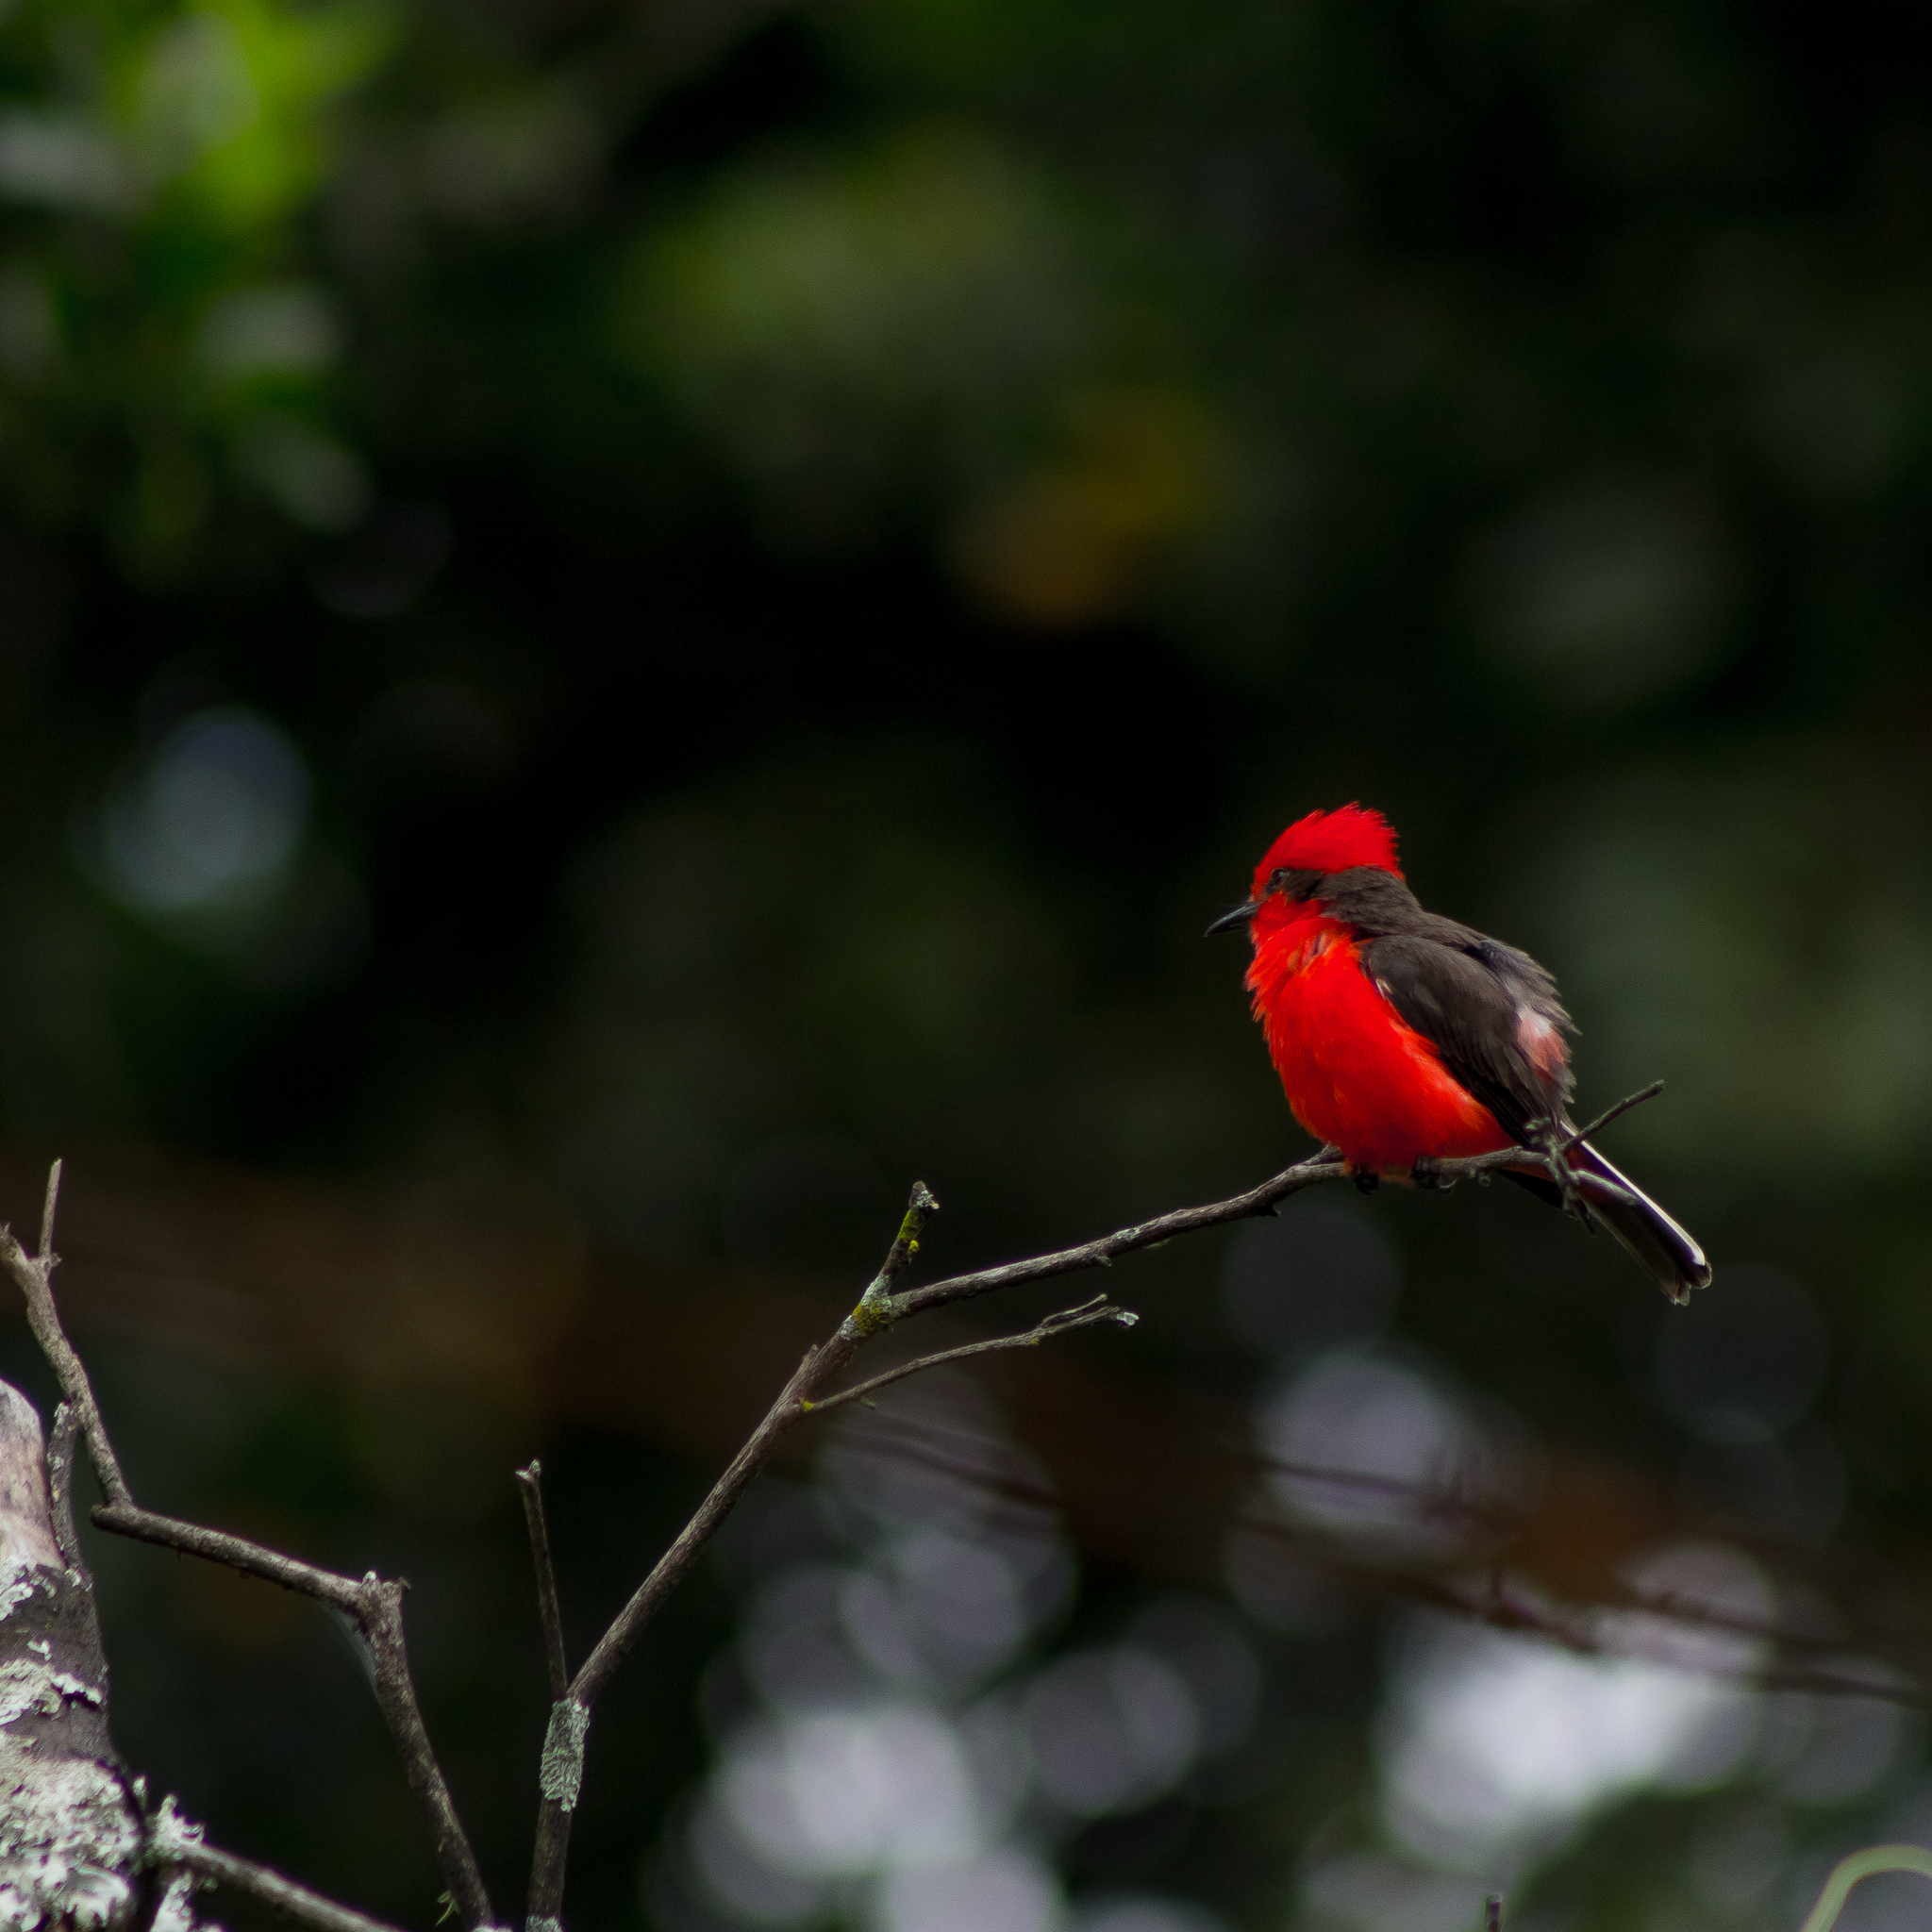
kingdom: Animalia
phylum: Chordata
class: Aves
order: Passeriformes
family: Tyrannidae
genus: Pyrocephalus
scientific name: Pyrocephalus rubinus
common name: Vermilion flycatcher
